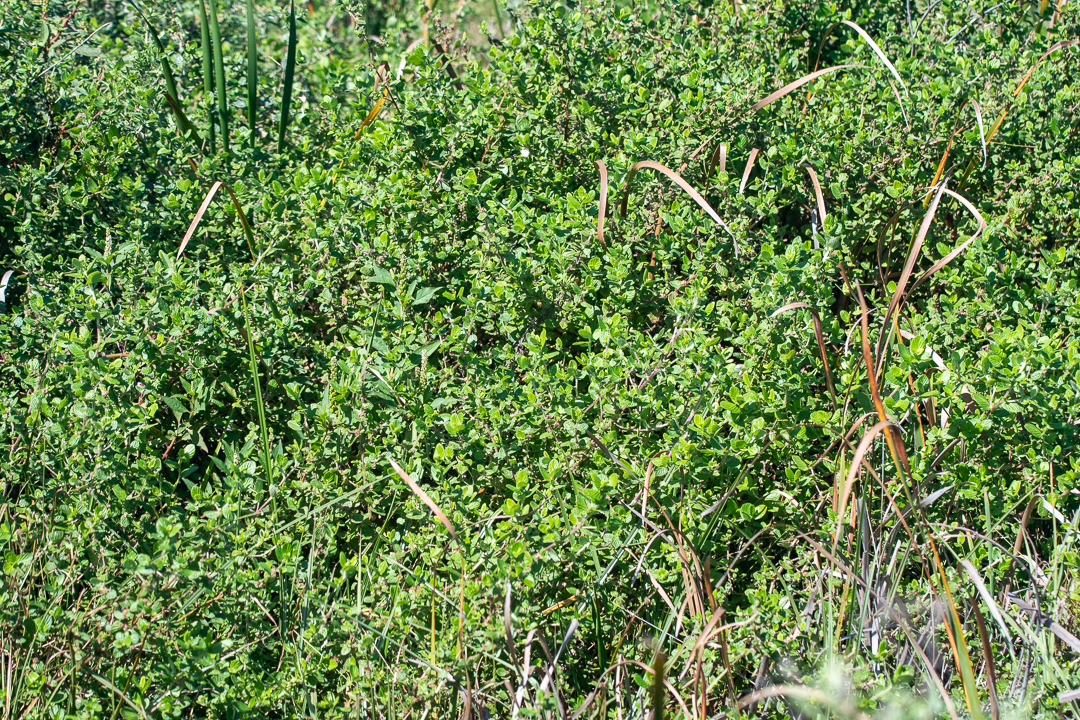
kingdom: Plantae
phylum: Tracheophyta
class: Magnoliopsida
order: Rosales
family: Rosaceae
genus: Cliffortia
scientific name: Cliffortia odorata
